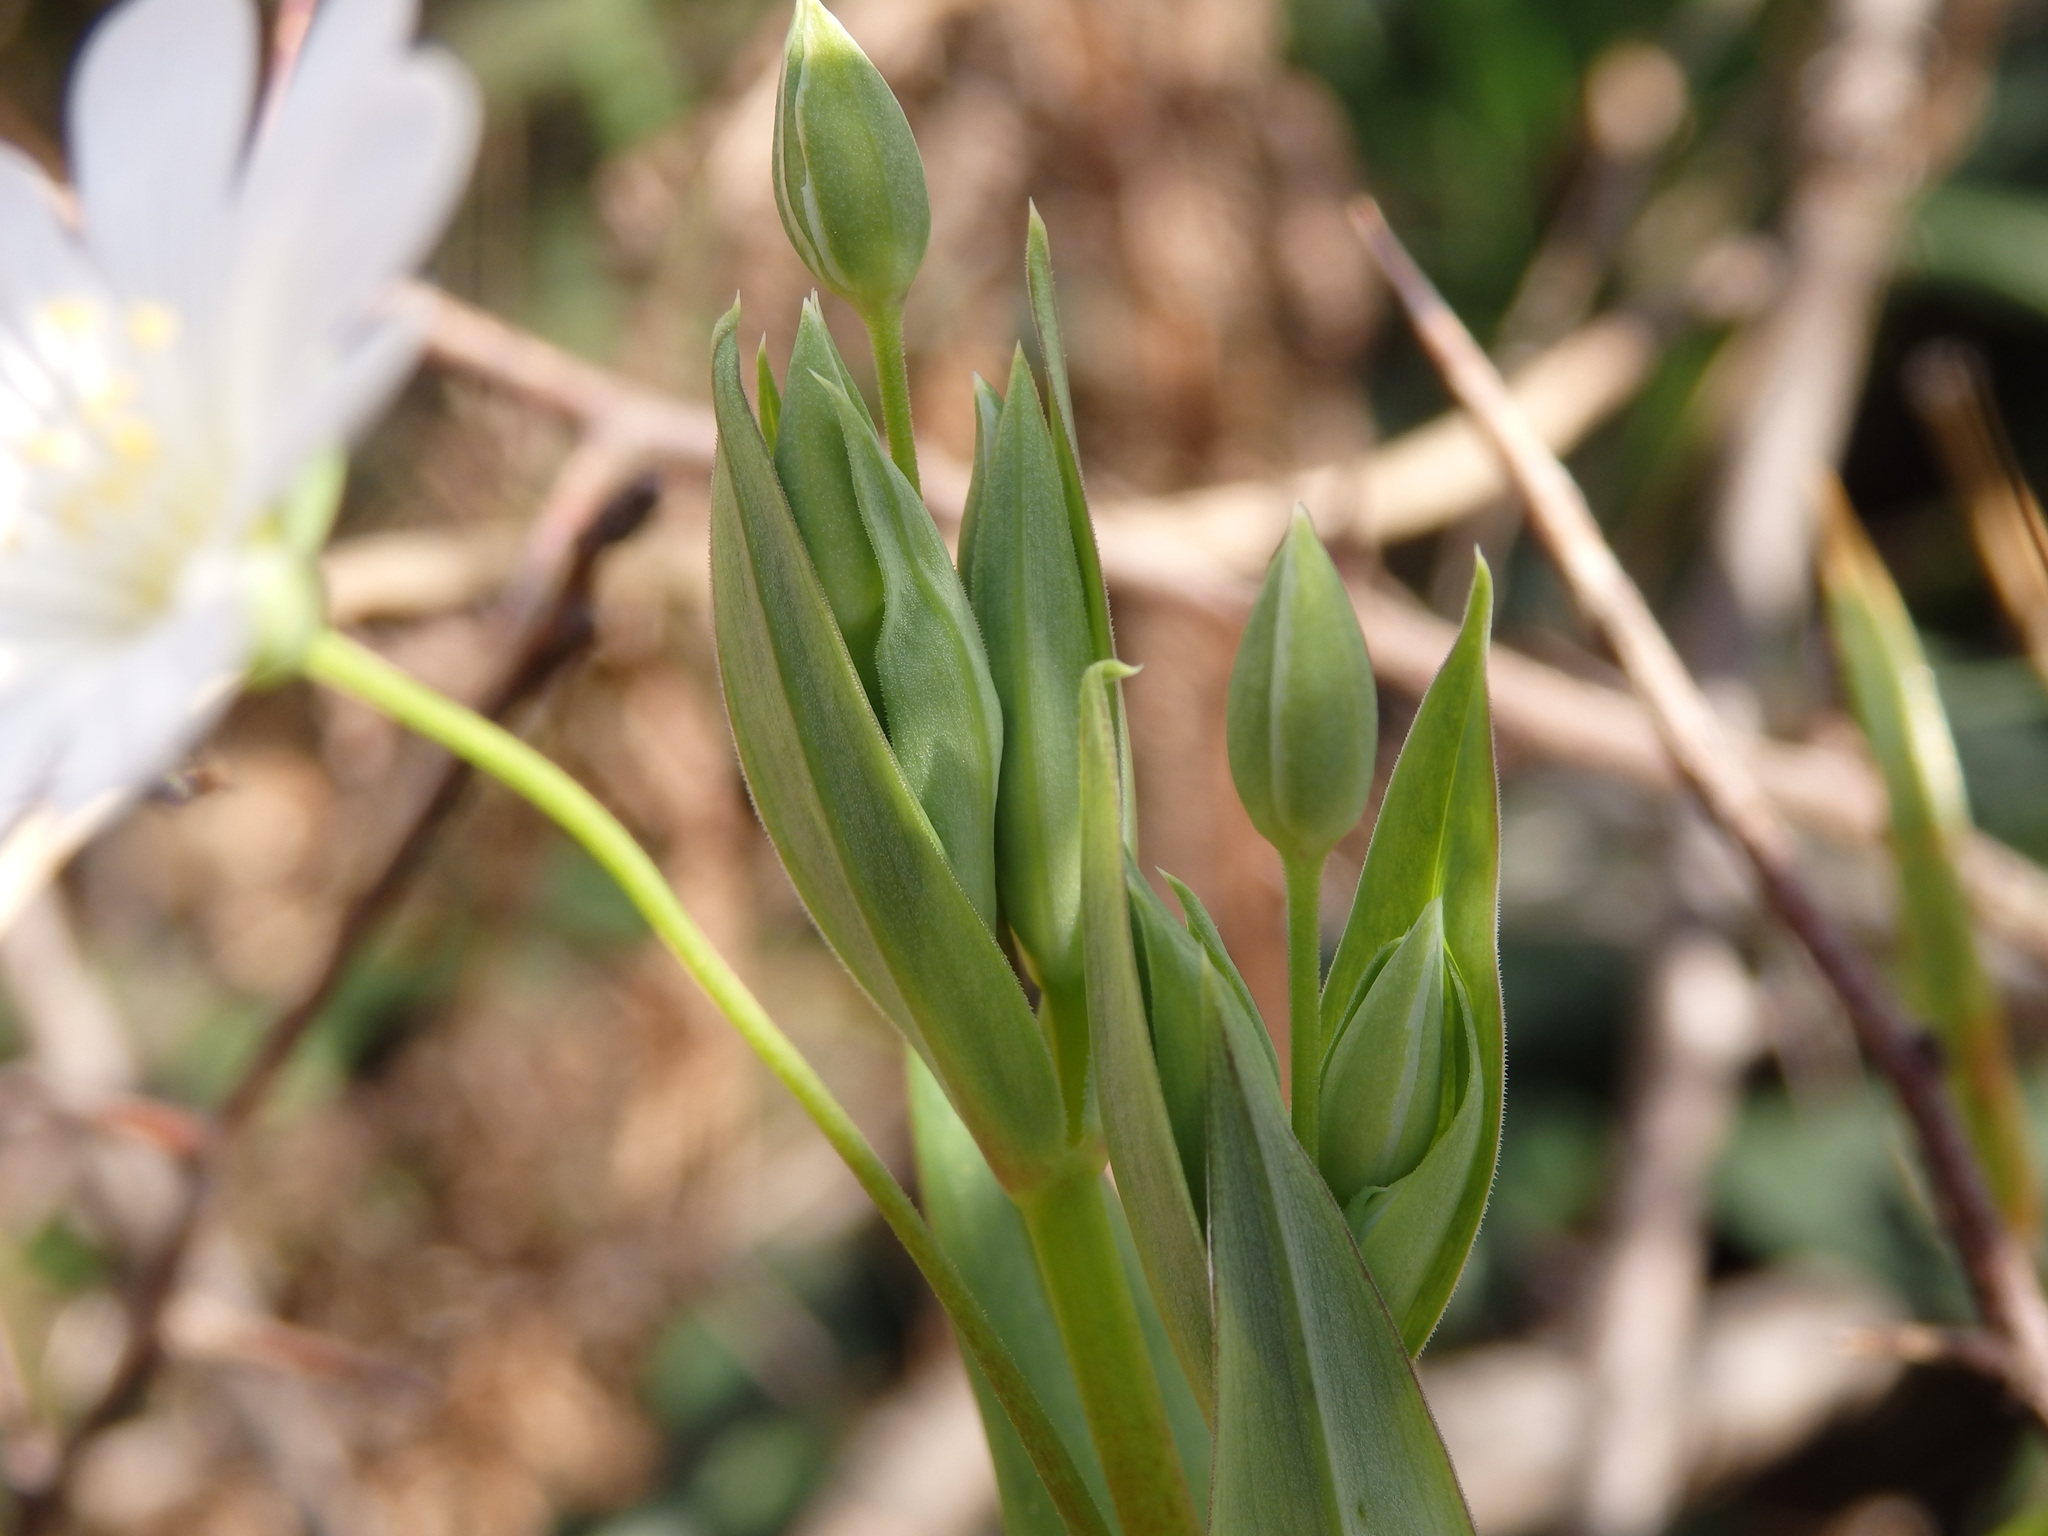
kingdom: Plantae
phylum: Tracheophyta
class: Magnoliopsida
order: Caryophyllales
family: Caryophyllaceae
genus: Rabelera
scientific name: Rabelera holostea
